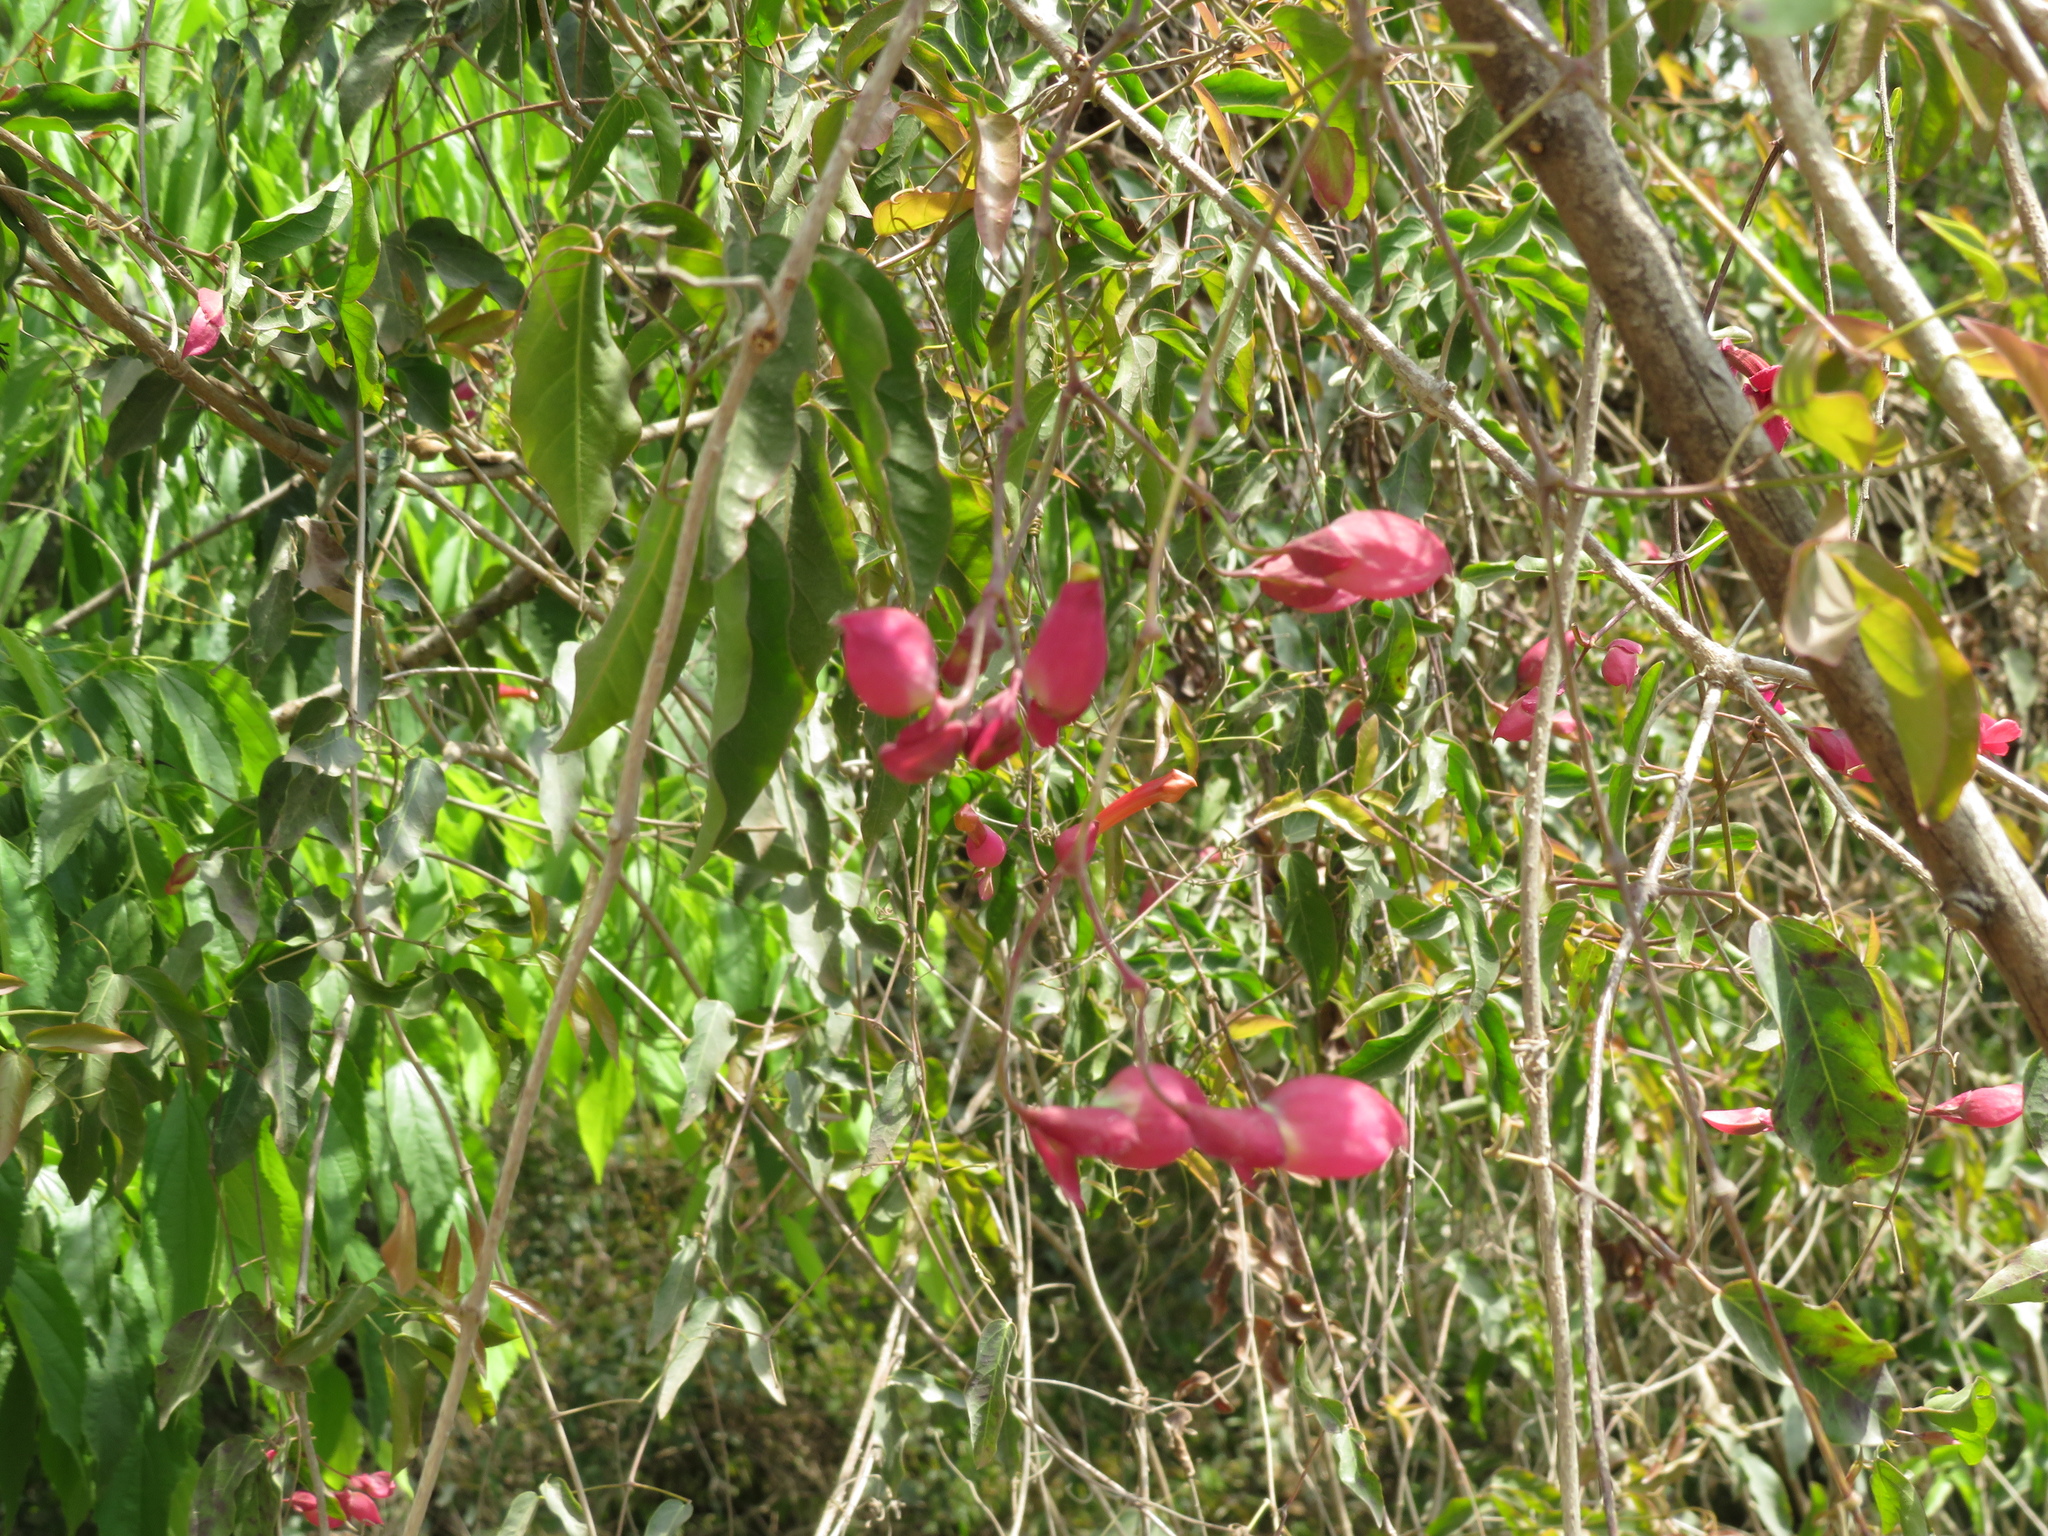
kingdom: Plantae
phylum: Tracheophyta
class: Magnoliopsida
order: Lamiales
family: Bignoniaceae
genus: Dolichandra
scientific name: Dolichandra cynanchoides
